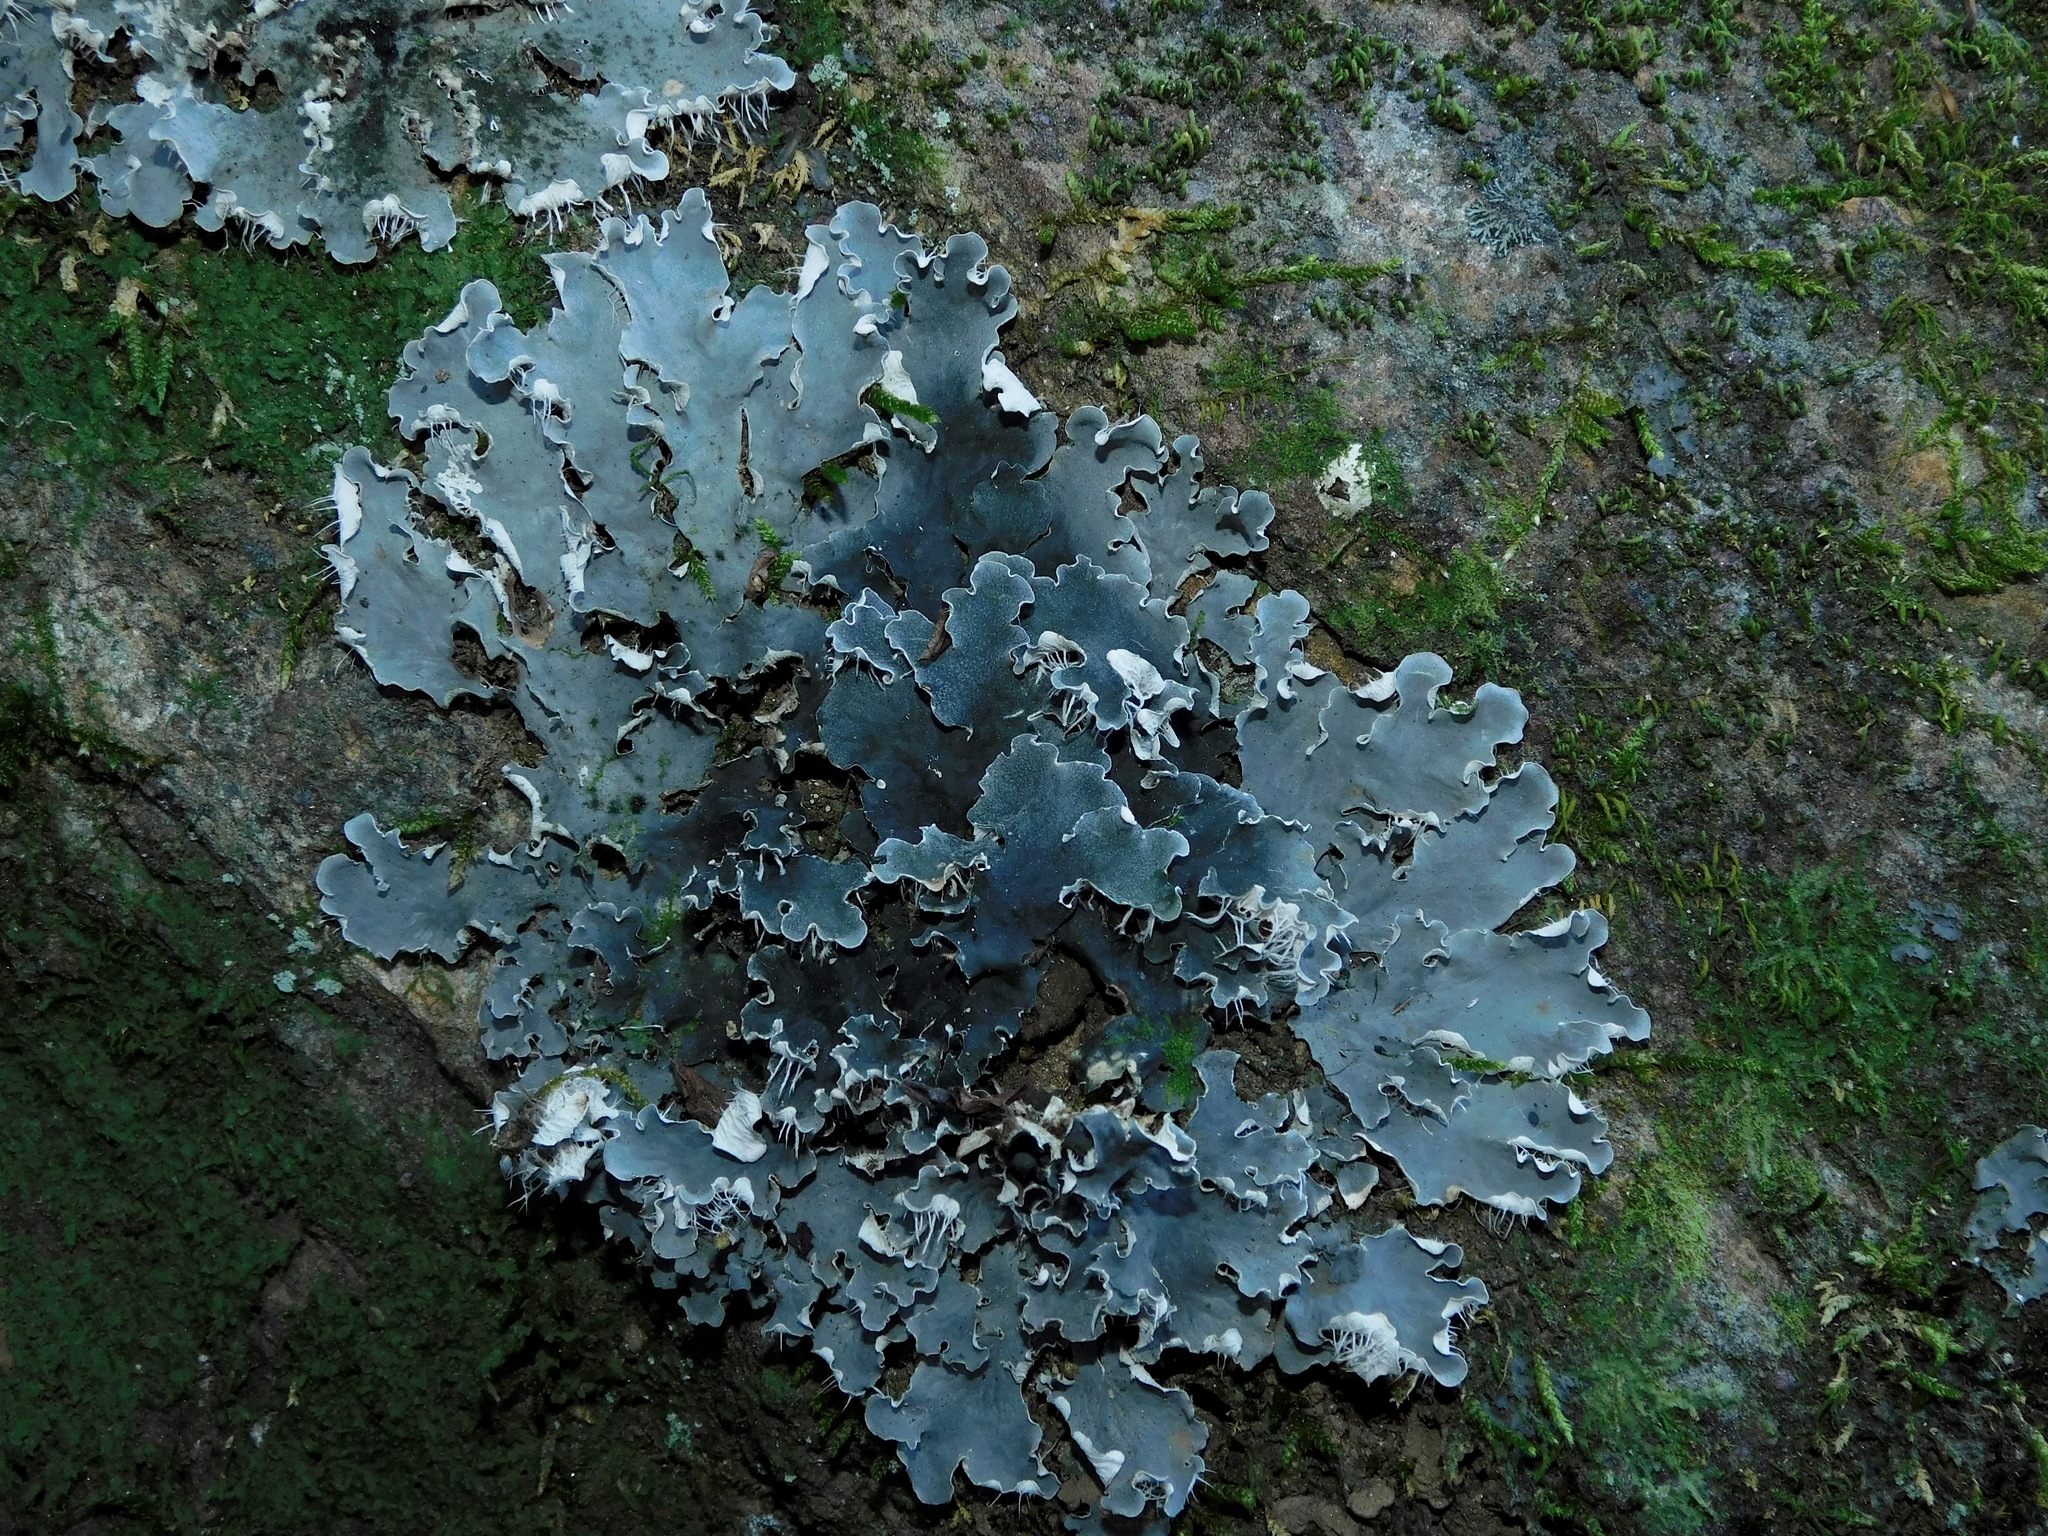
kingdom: Fungi
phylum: Ascomycota
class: Lecanoromycetes
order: Peltigerales
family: Peltigeraceae
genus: Peltigera
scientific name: Peltigera praetextata
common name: Scaly dog-lichen
